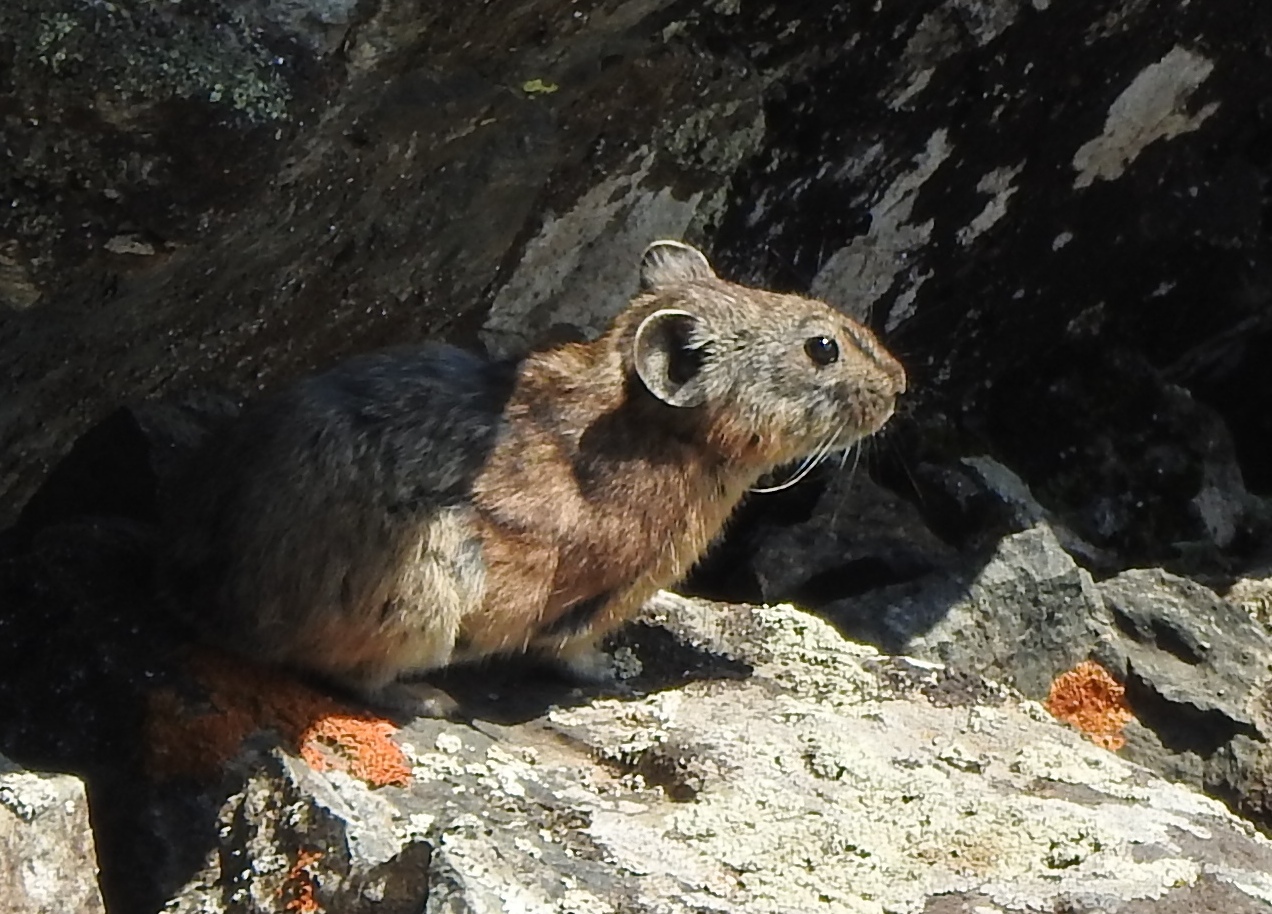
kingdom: Animalia
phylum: Chordata
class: Mammalia
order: Lagomorpha
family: Ochotonidae
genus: Ochotona
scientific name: Ochotona mantchurica
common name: Manchurian pika
